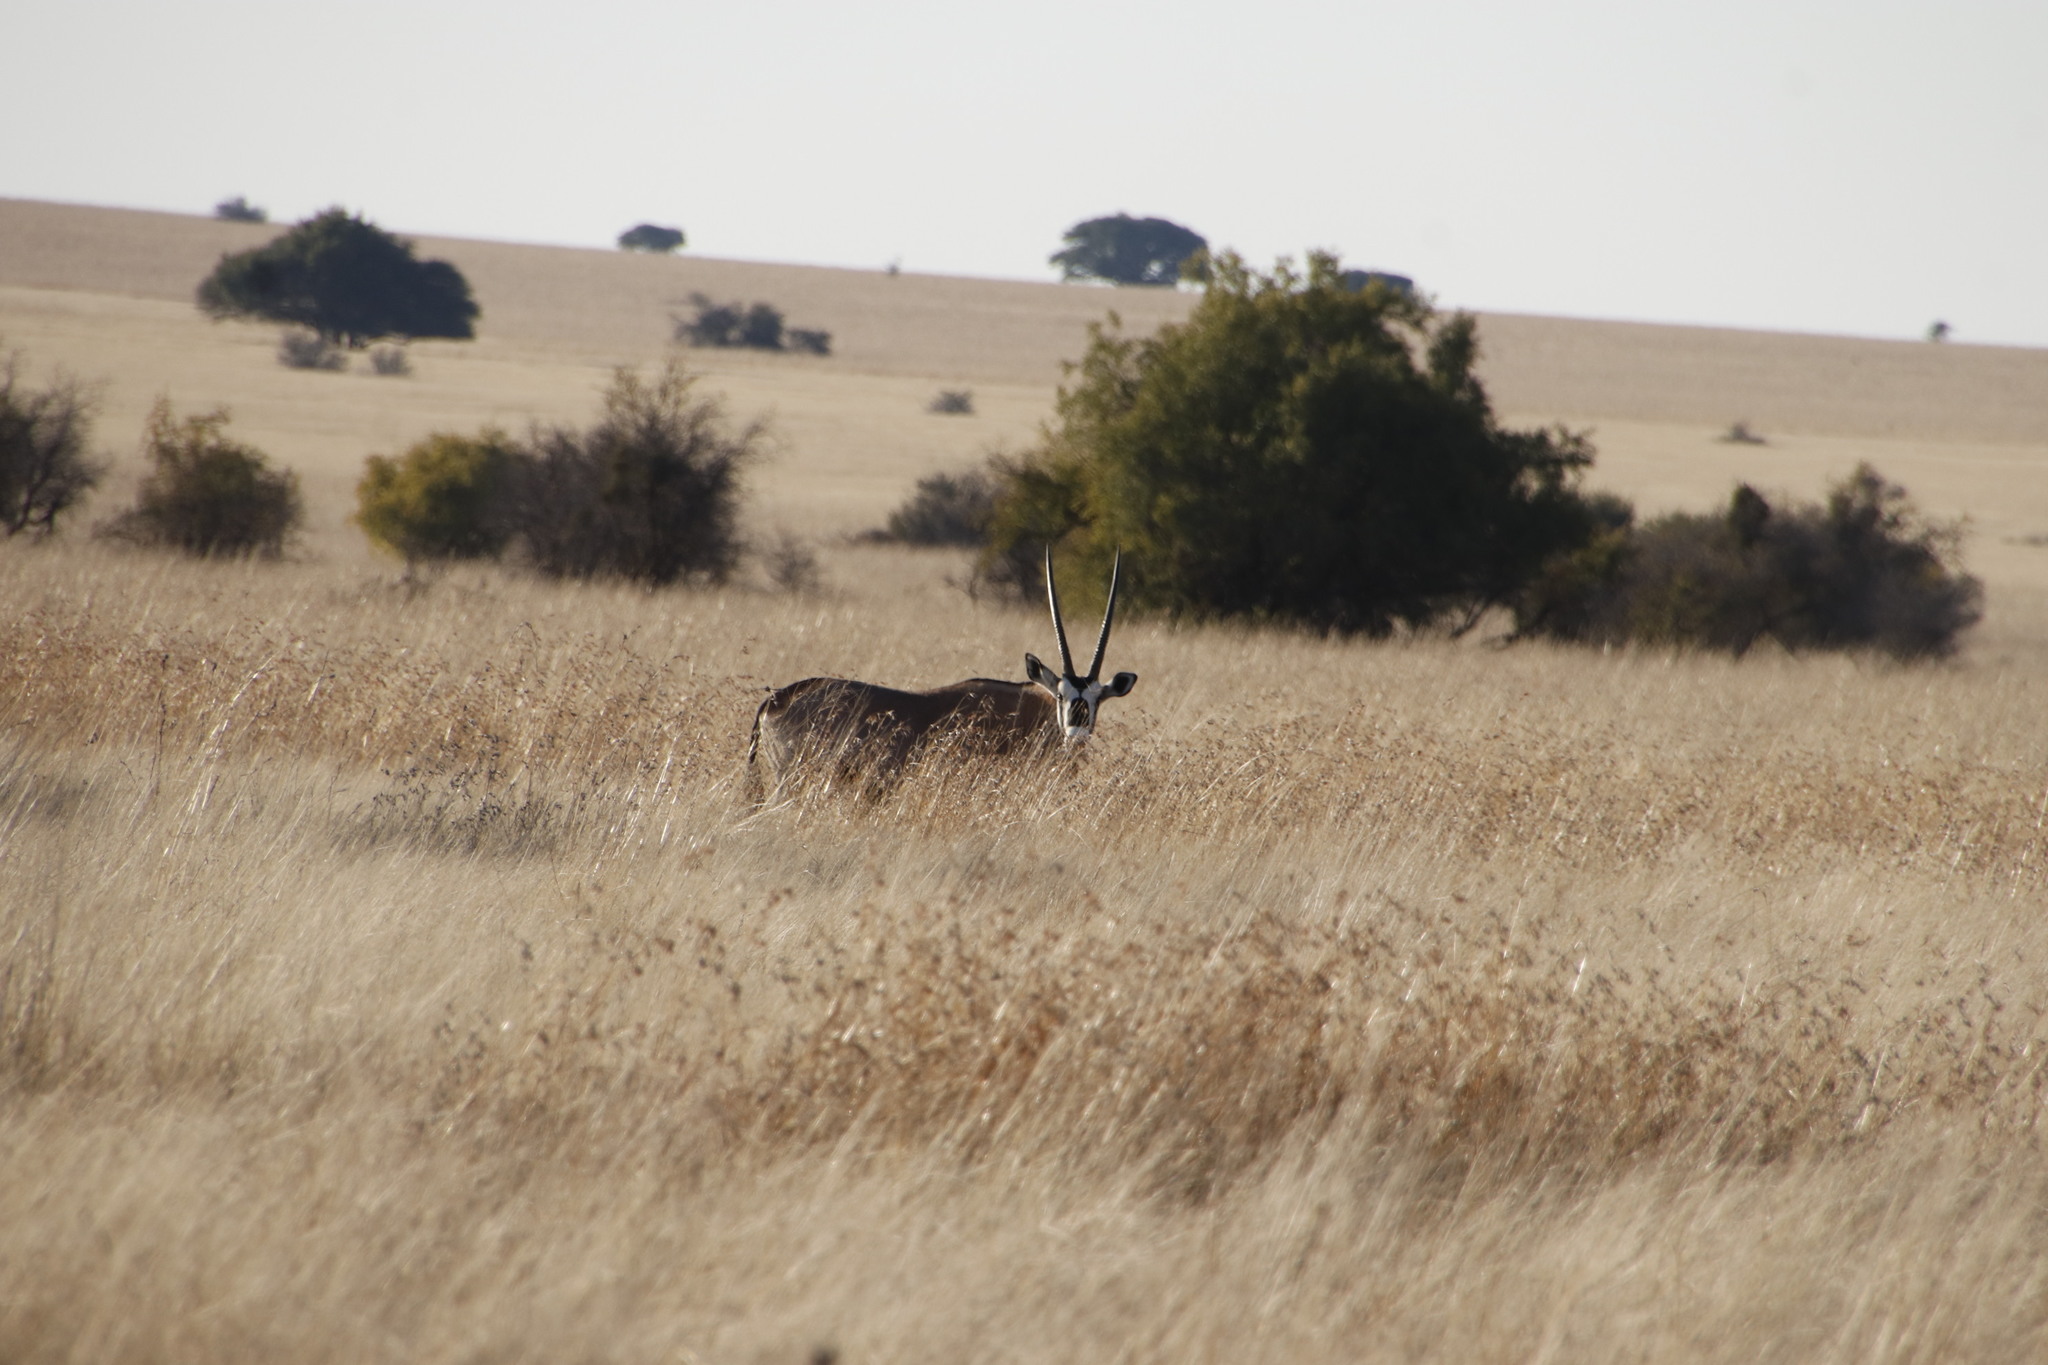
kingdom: Animalia
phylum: Chordata
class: Mammalia
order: Artiodactyla
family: Bovidae
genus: Oryx
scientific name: Oryx gazella
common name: Gemsbok
